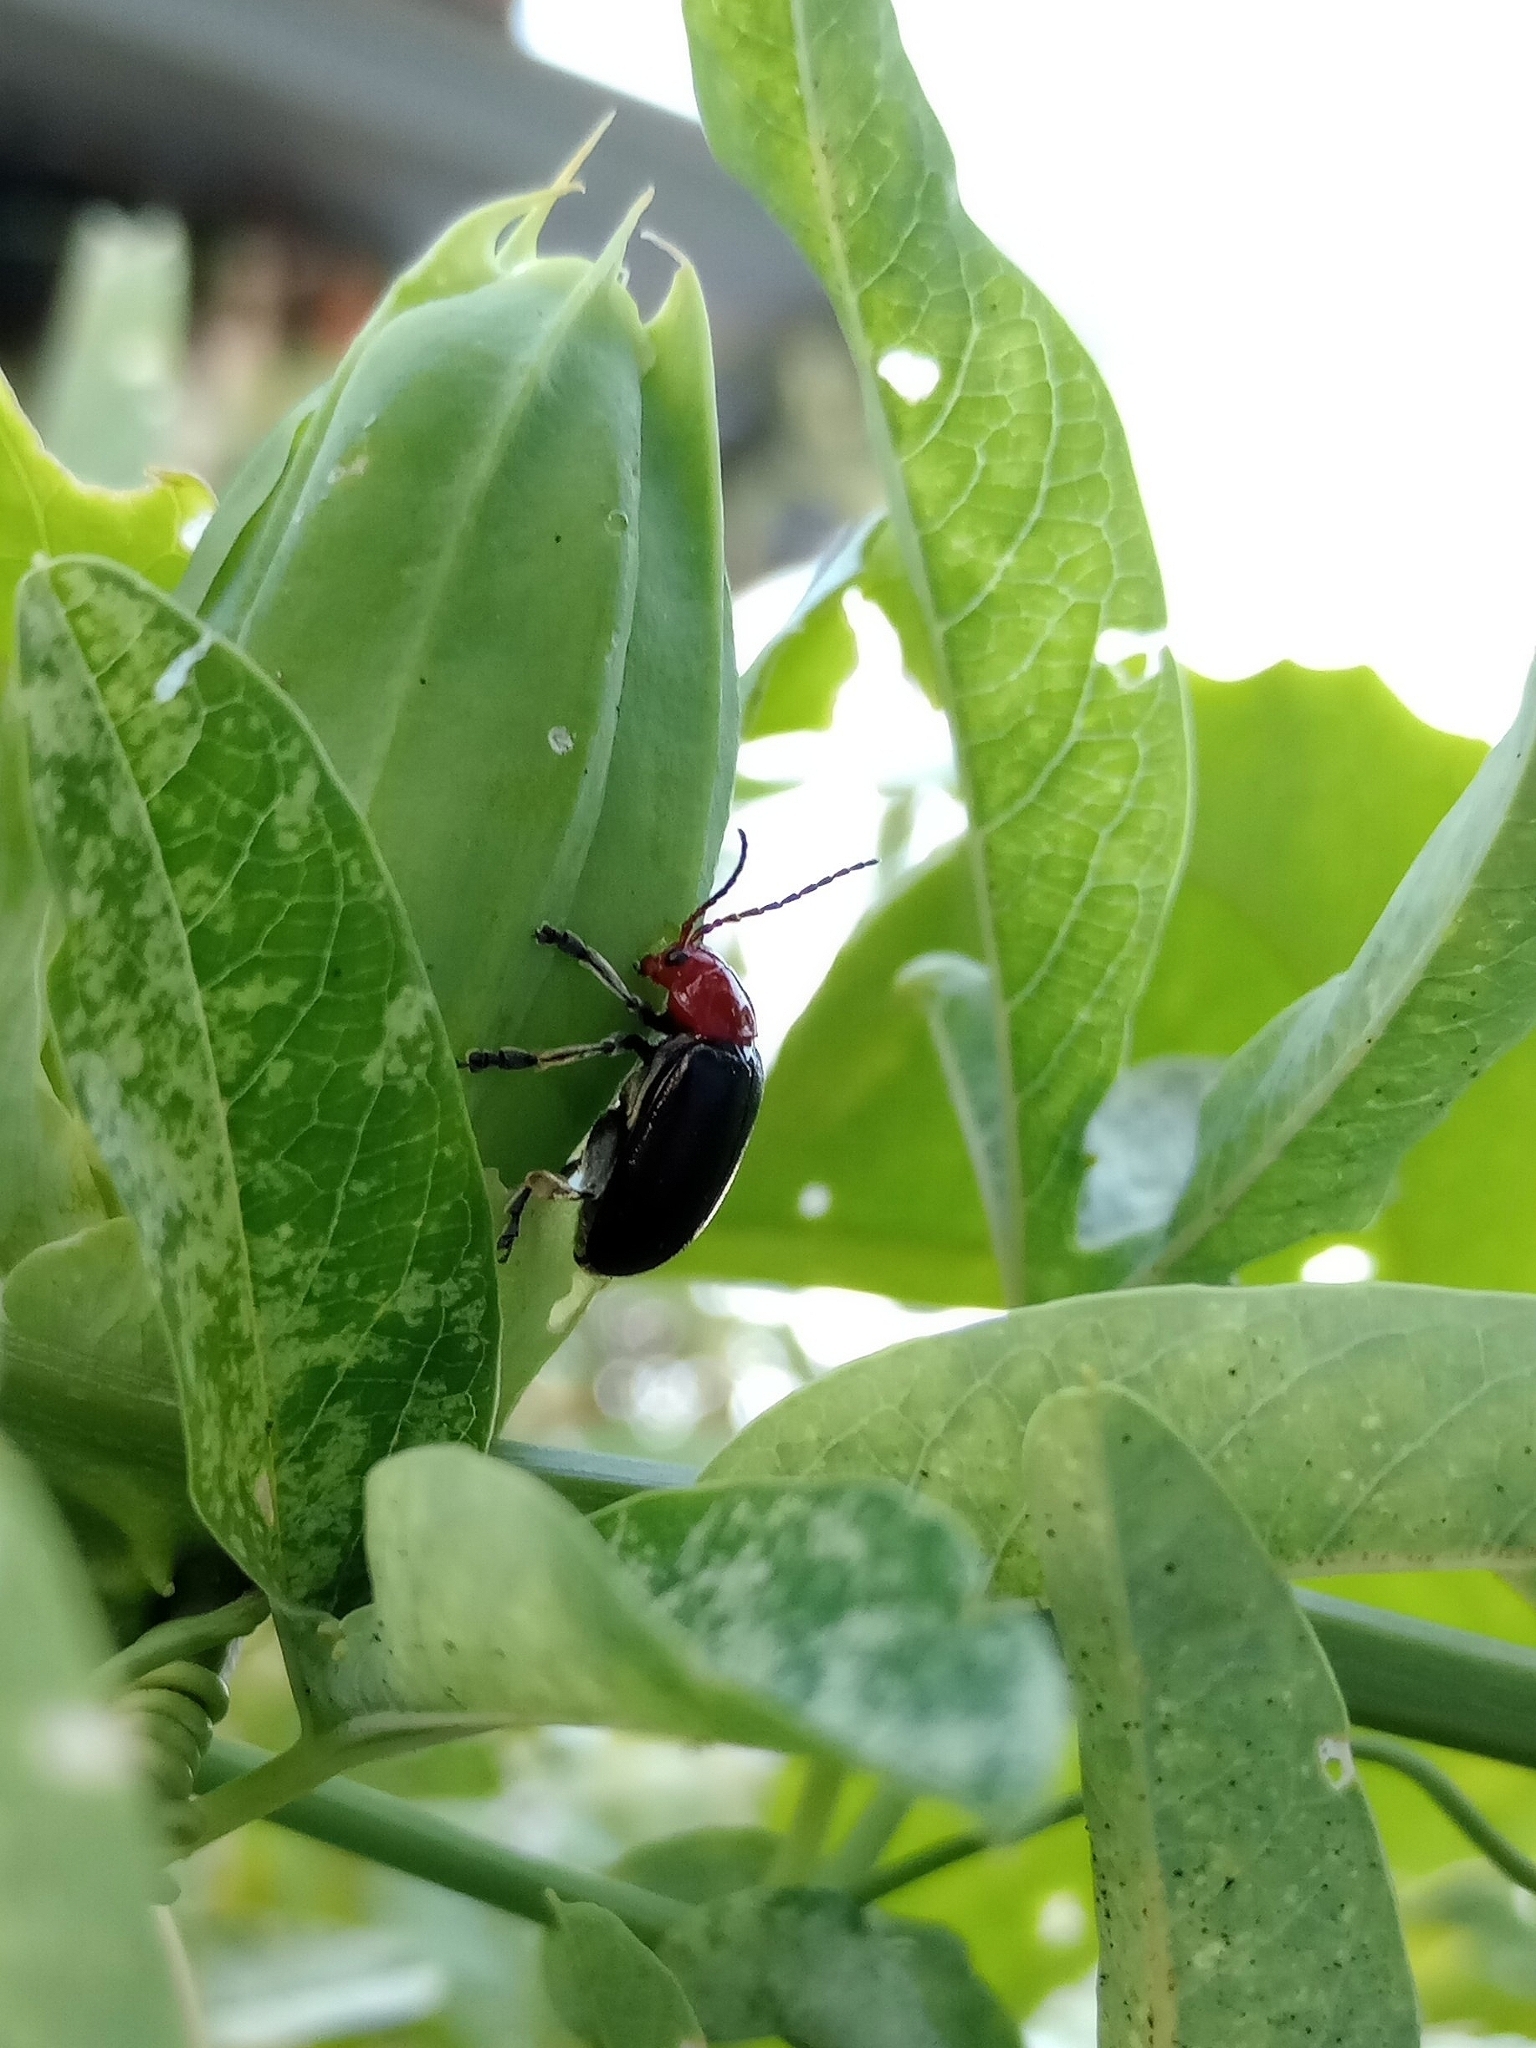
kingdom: Animalia
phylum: Arthropoda
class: Insecta
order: Coleoptera
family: Chrysomelidae
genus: Cacoscelis
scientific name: Cacoscelis
